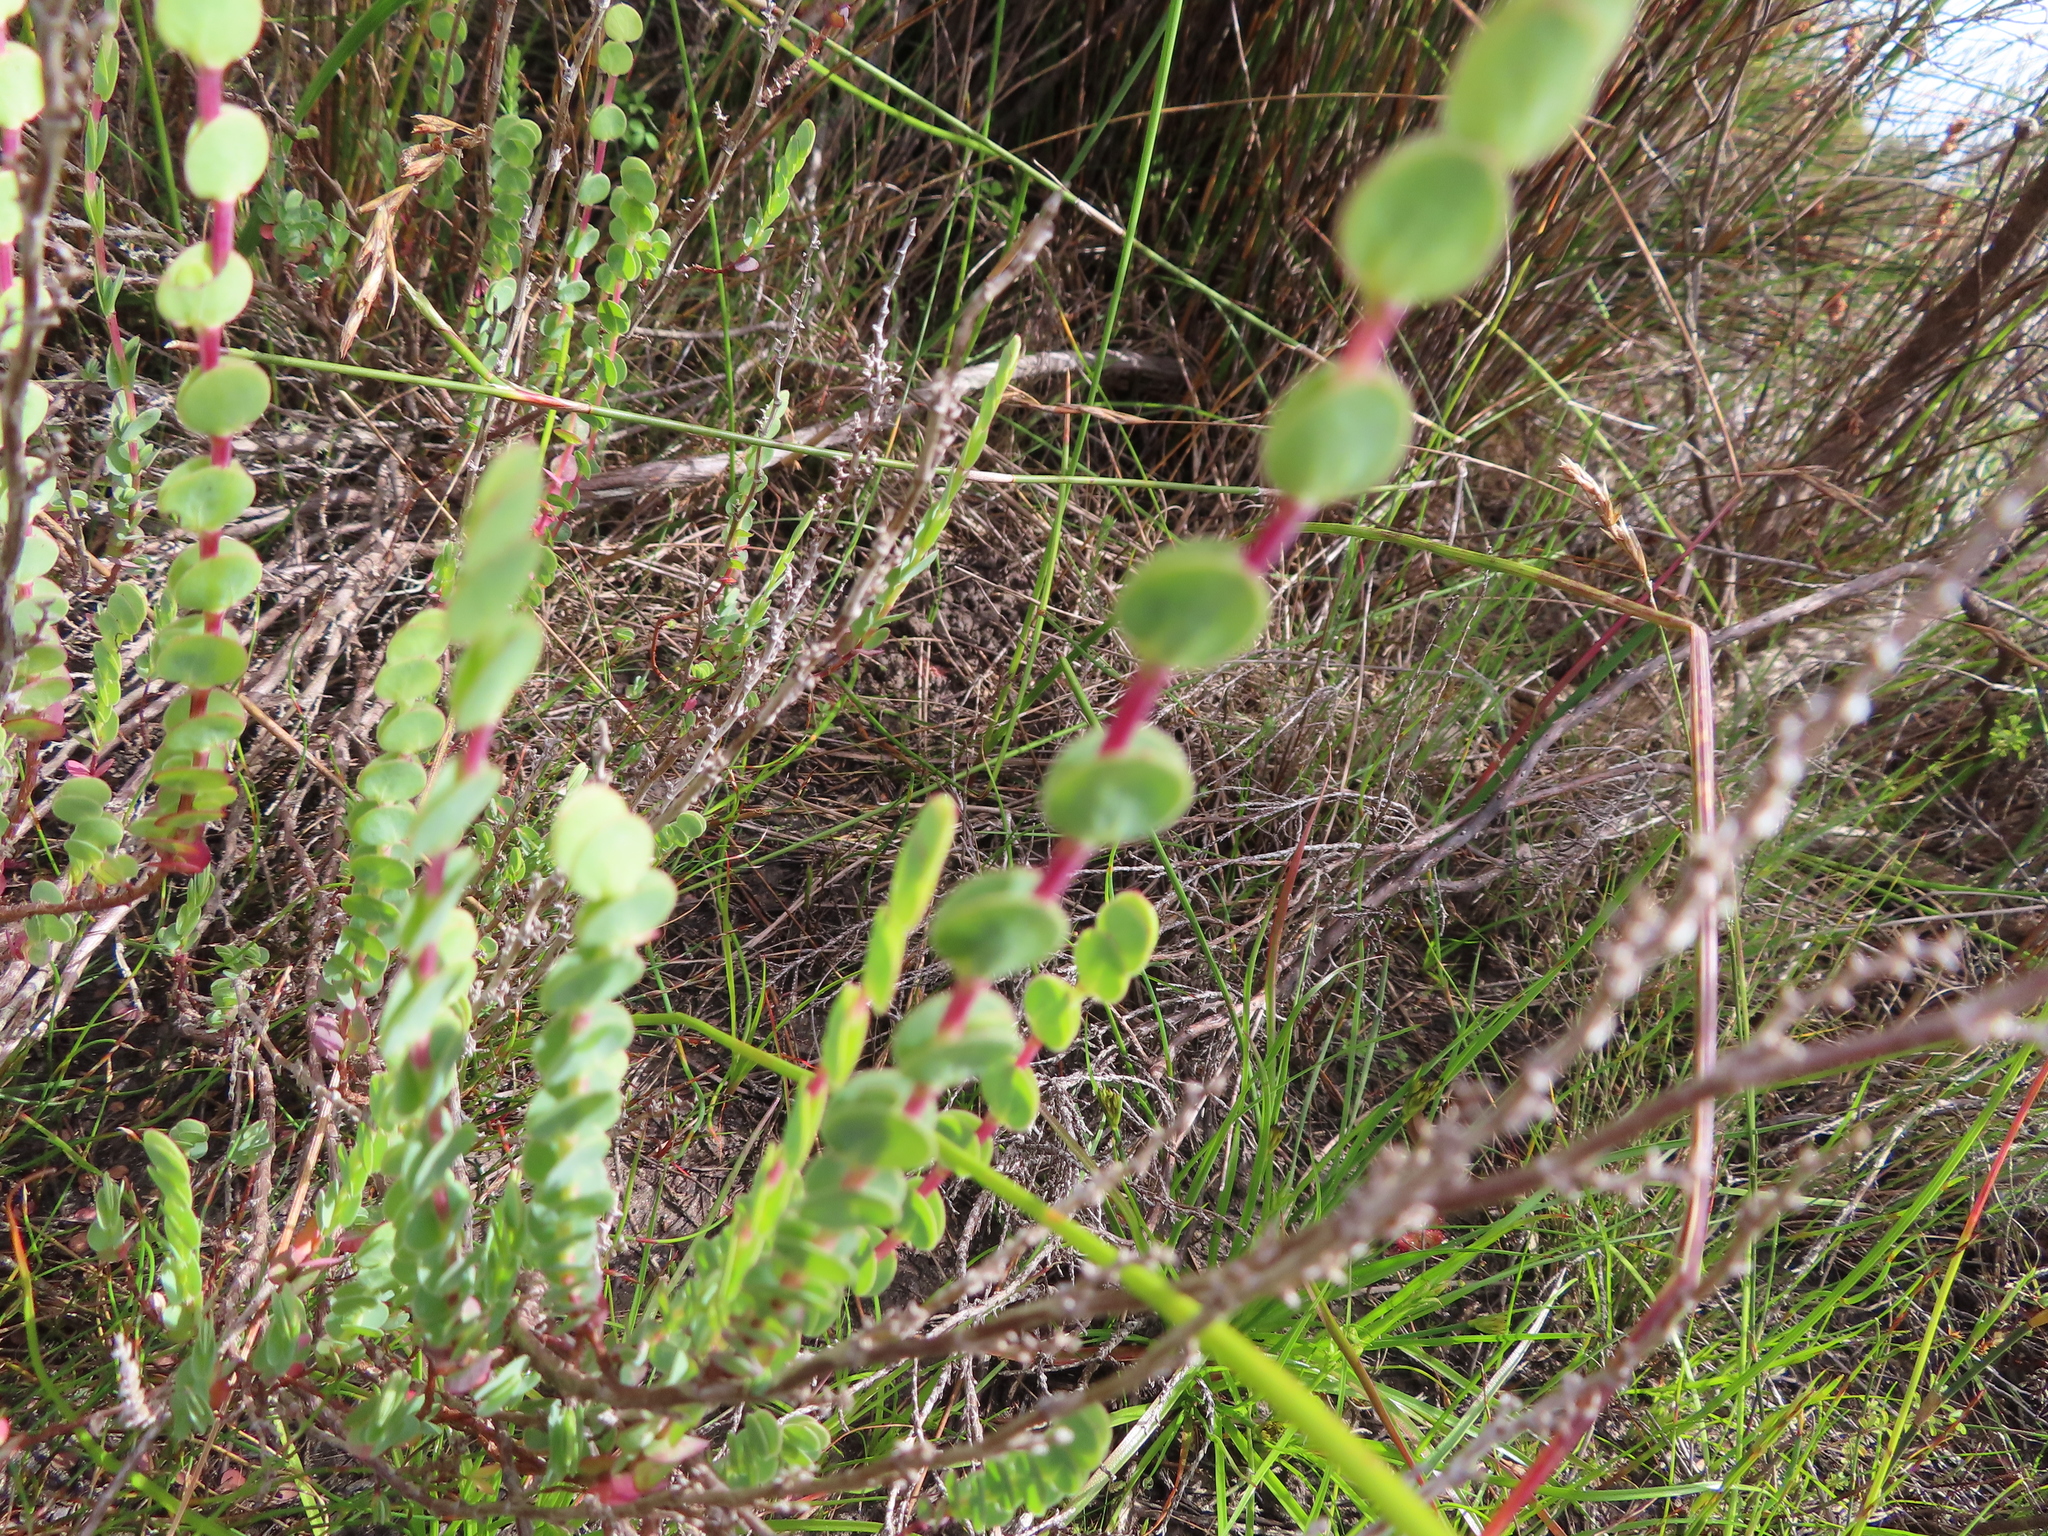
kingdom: Plantae
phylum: Tracheophyta
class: Magnoliopsida
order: Rosales
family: Rosaceae
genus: Cliffortia
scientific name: Cliffortia phyllanthoides
